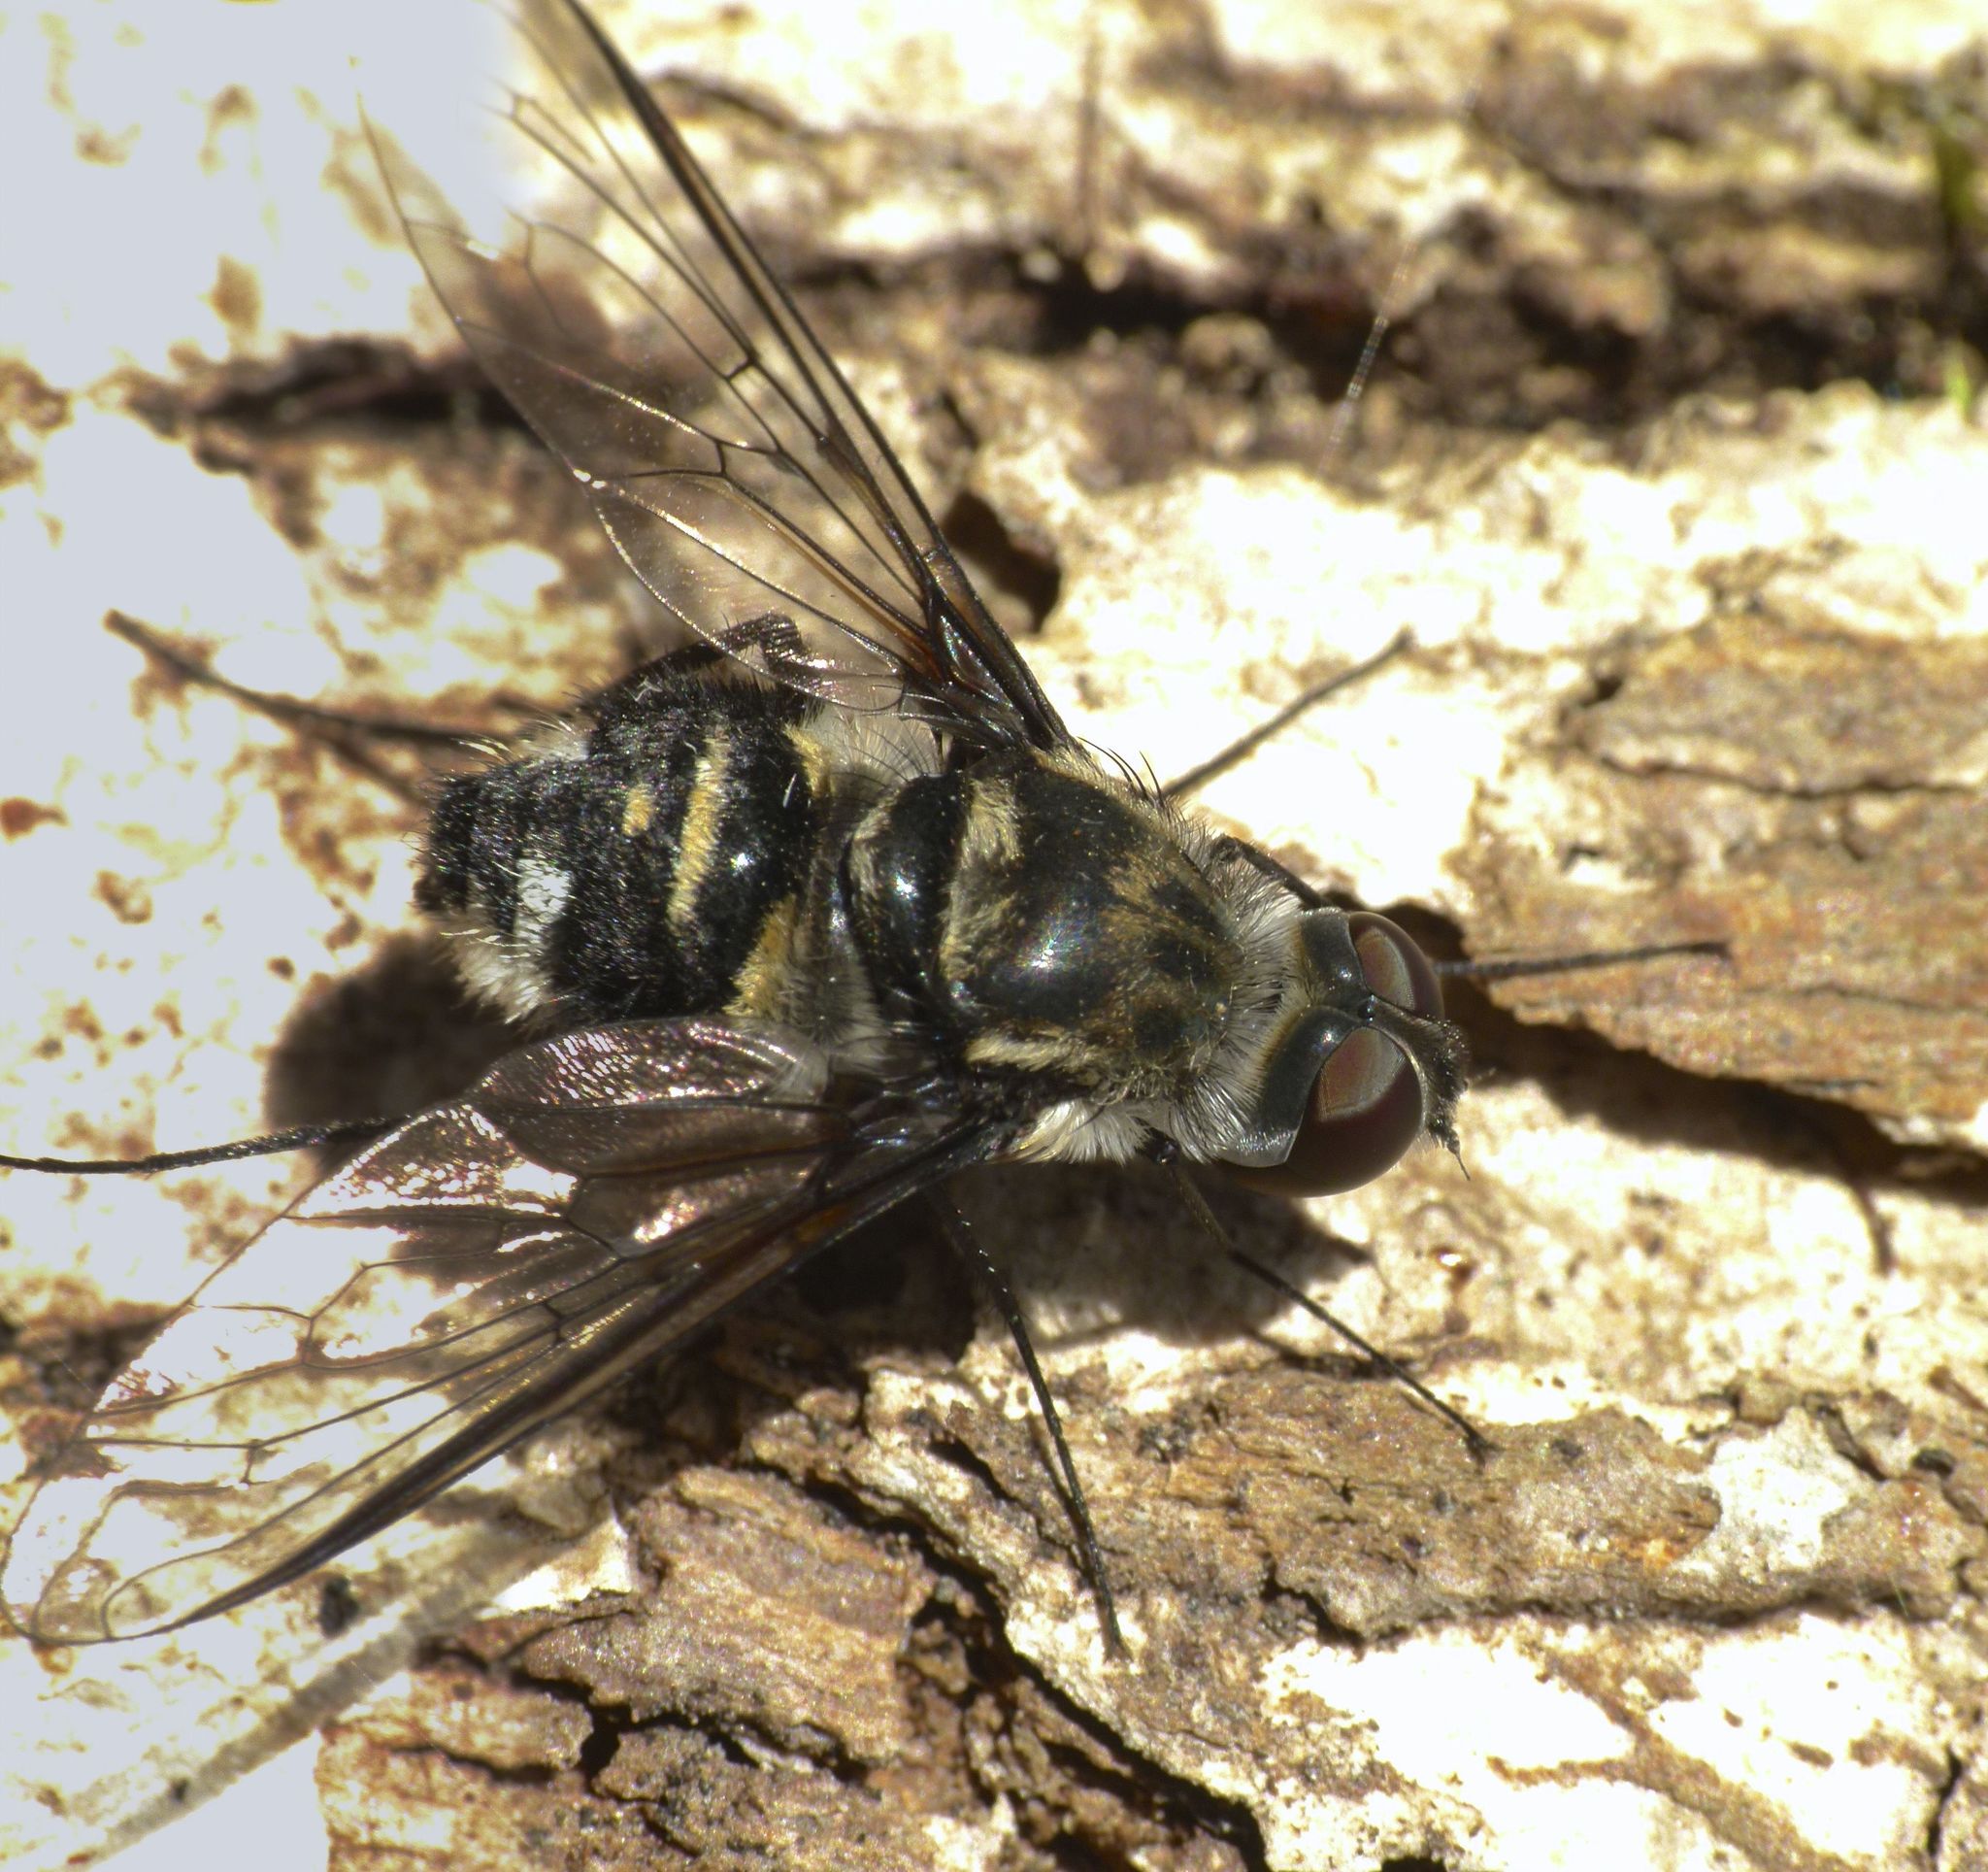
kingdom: Animalia
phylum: Arthropoda
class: Insecta
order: Diptera
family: Bombyliidae
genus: Thraxan
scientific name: Thraxan
